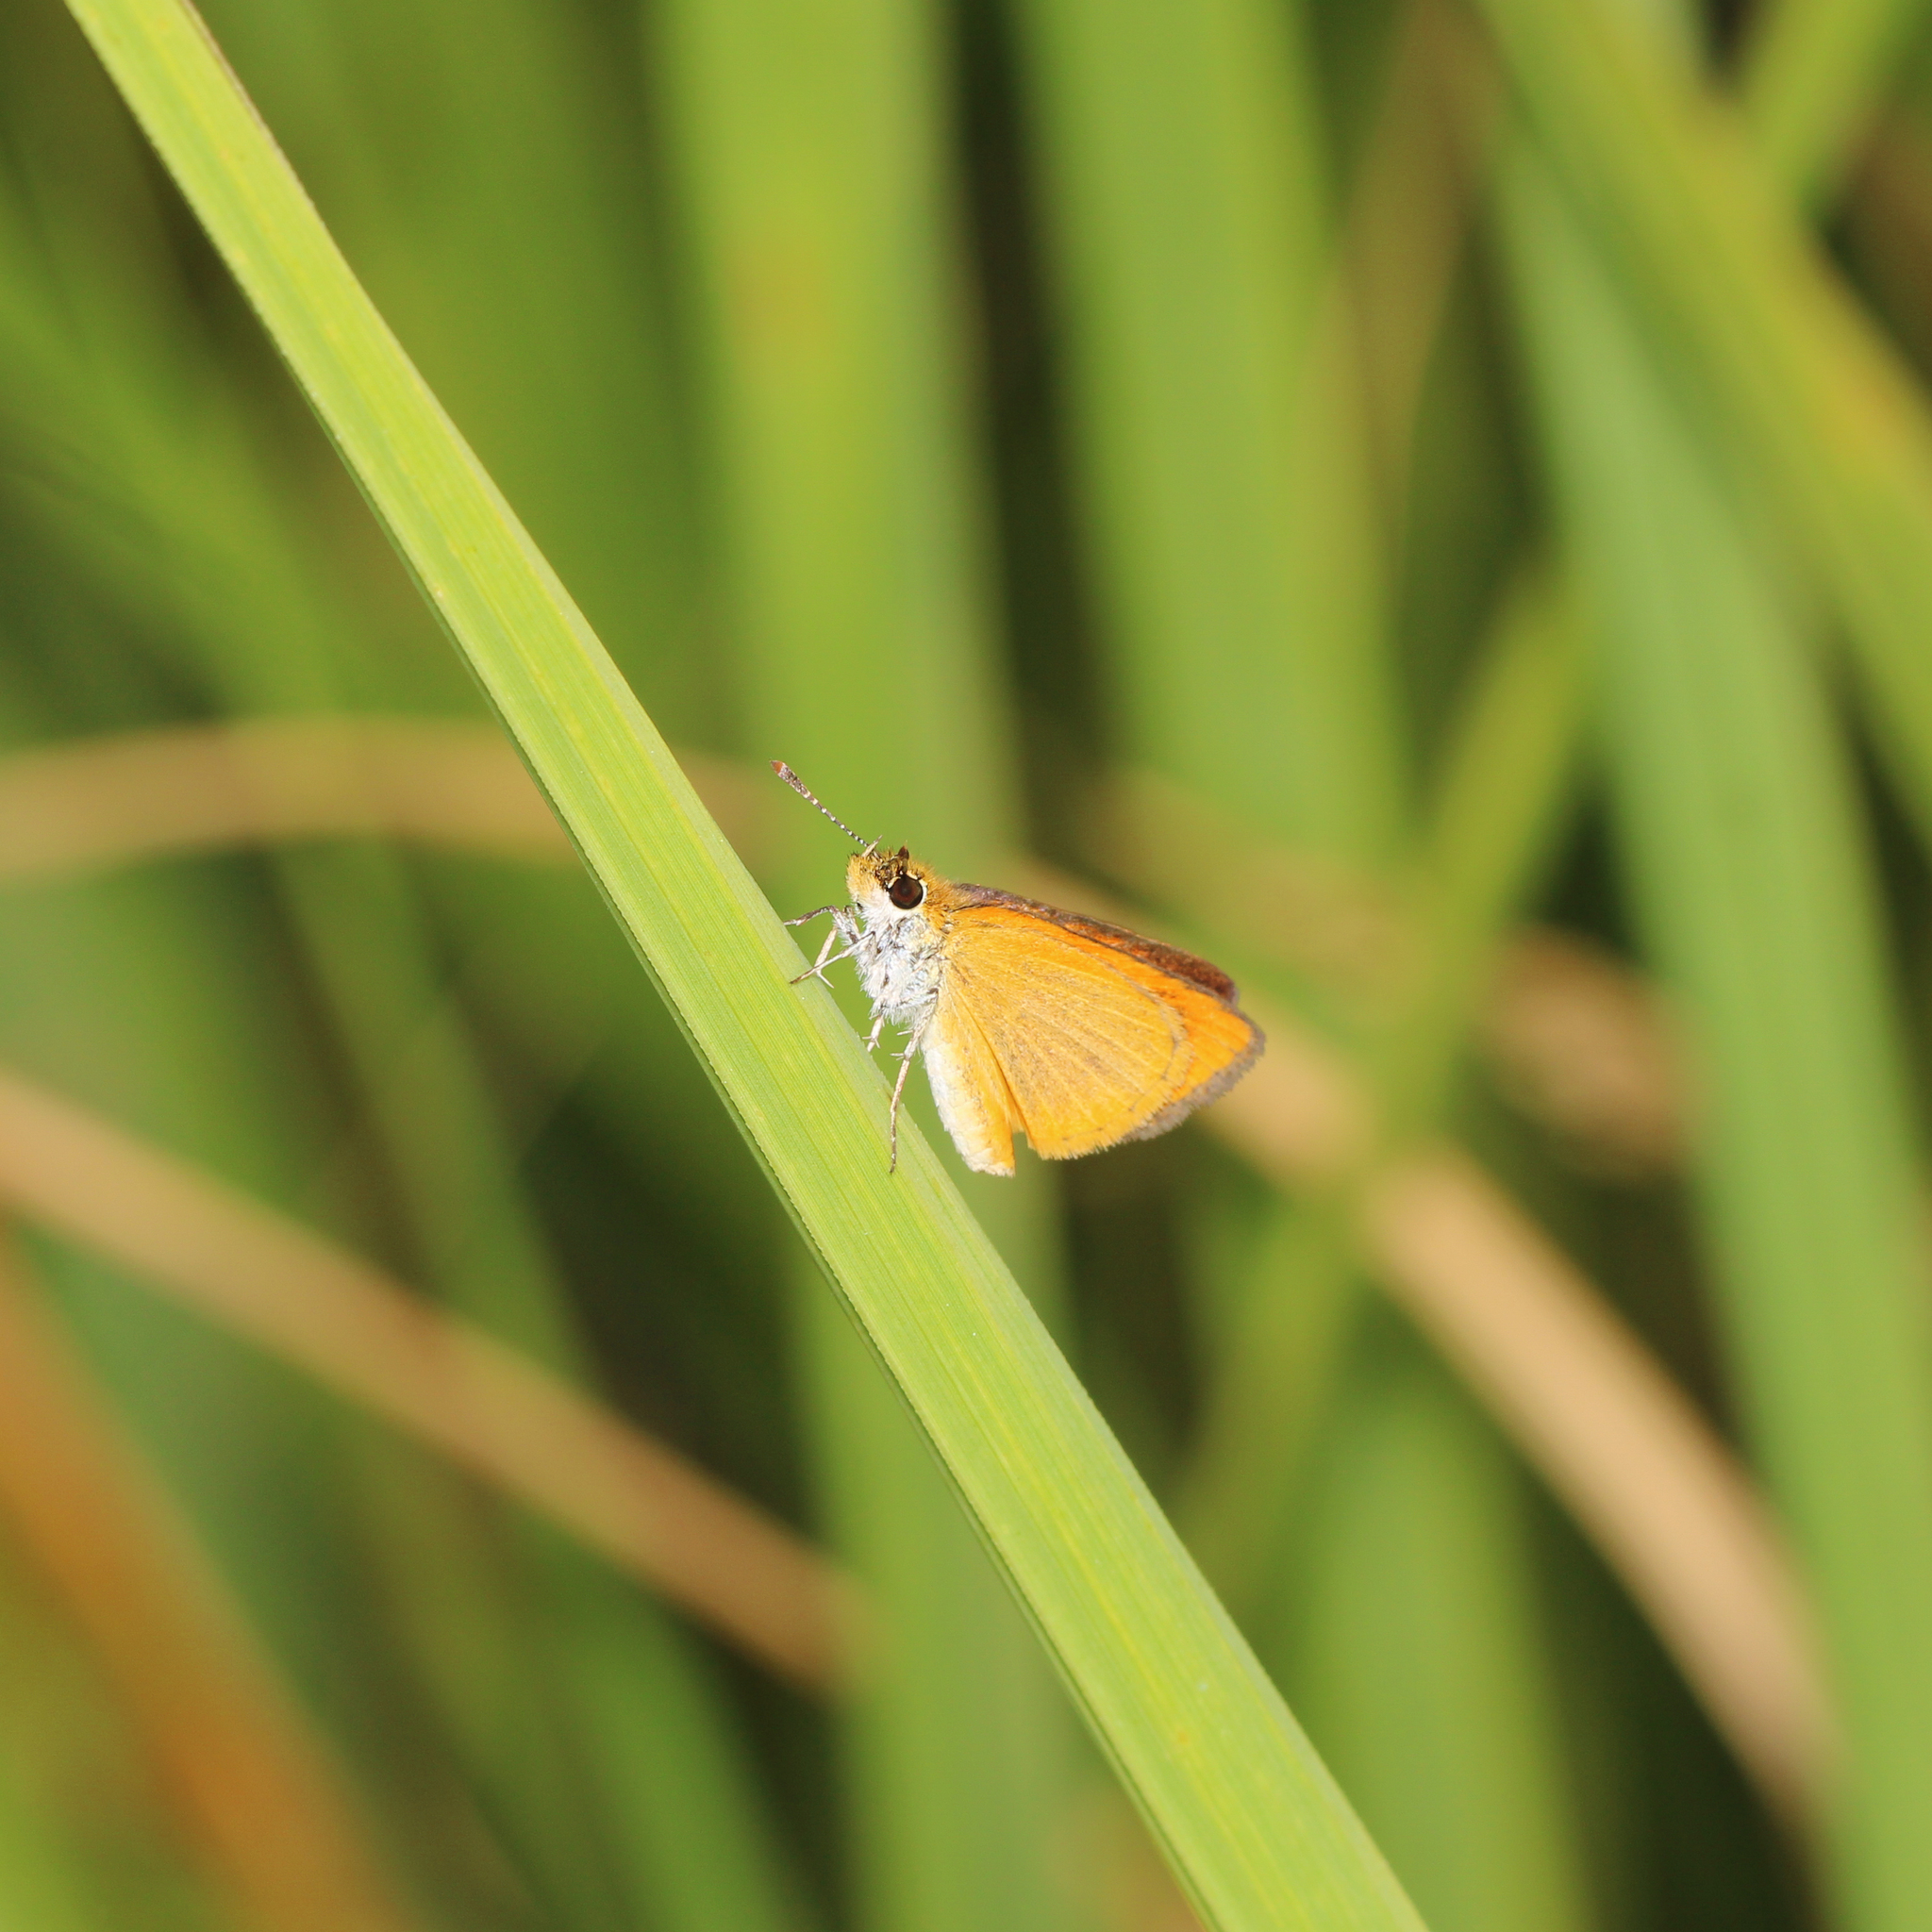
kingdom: Animalia
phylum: Arthropoda
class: Insecta
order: Lepidoptera
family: Hesperiidae
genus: Ancyloxypha
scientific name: Ancyloxypha numitor
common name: Least skipper
